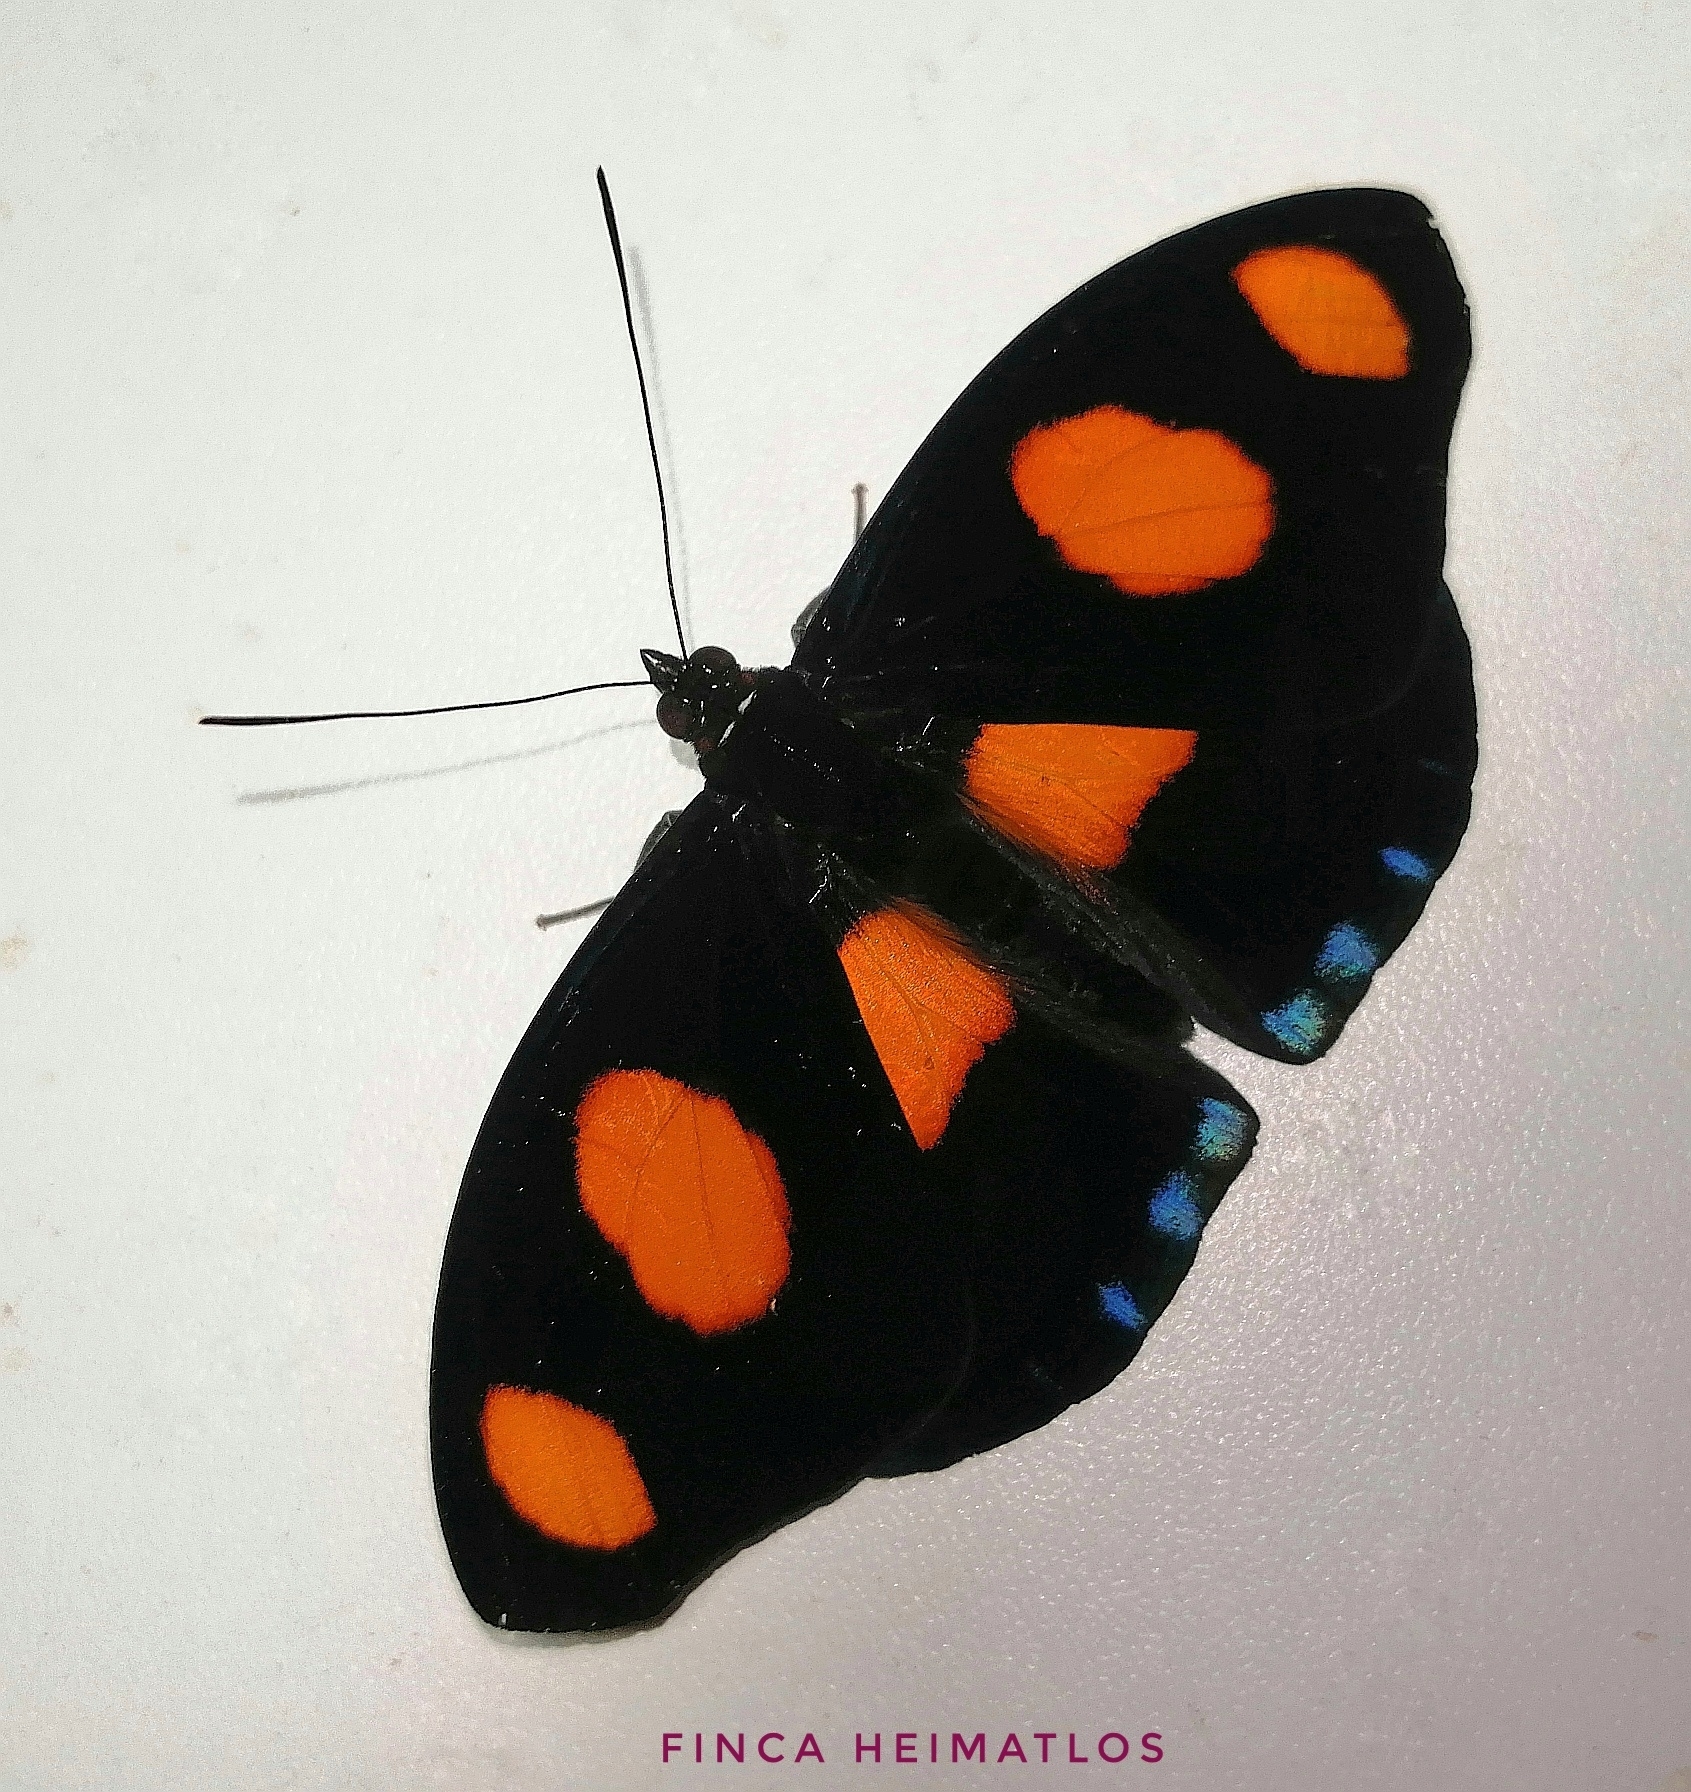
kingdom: Animalia
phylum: Arthropoda
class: Insecta
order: Lepidoptera
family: Nymphalidae
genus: Catonephele
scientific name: Catonephele numilia
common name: Blue-frosted banner
